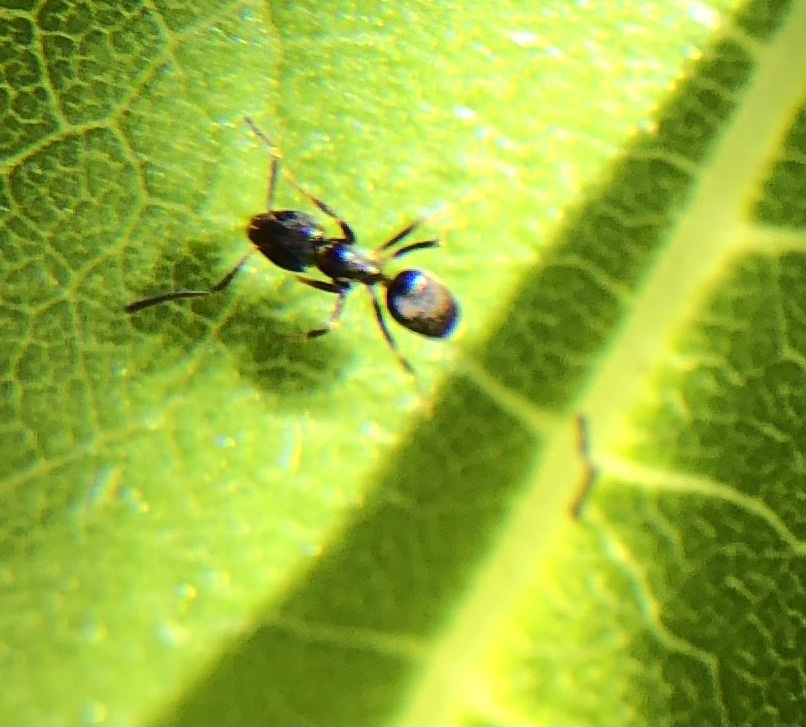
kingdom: Animalia
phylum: Arthropoda
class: Insecta
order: Hymenoptera
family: Formicidae
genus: Tapinoma
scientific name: Tapinoma sessile
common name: Odorous house ant
